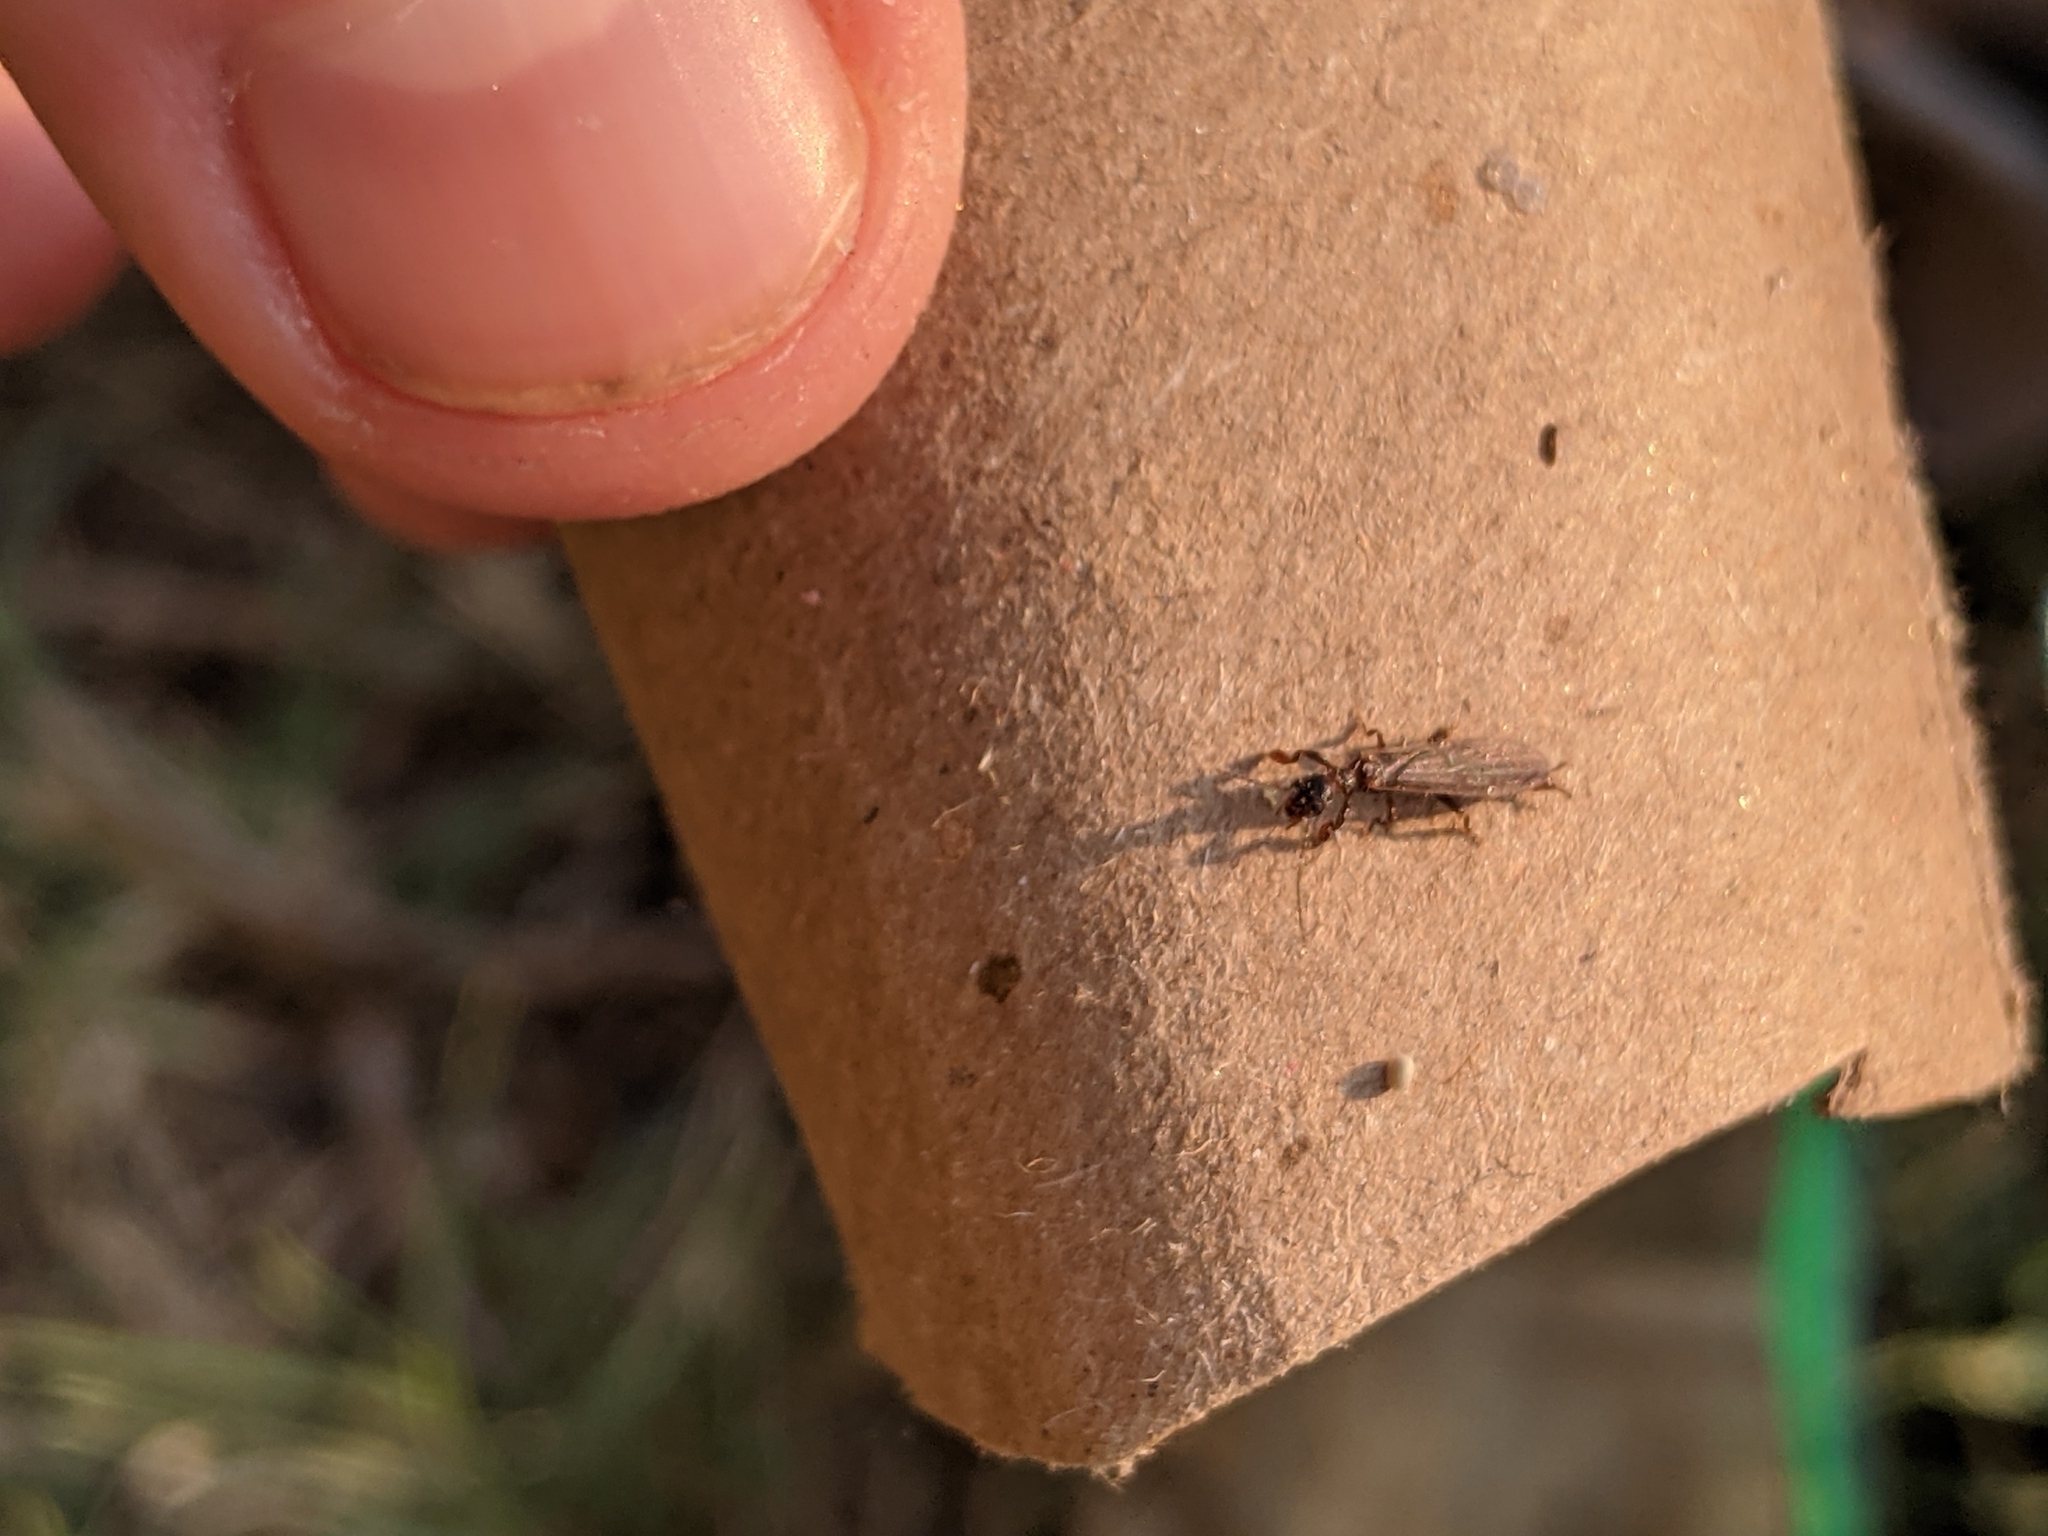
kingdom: Animalia
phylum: Arthropoda
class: Insecta
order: Embioptera
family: Oligotomidae
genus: Oligotoma
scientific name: Oligotoma nigra
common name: Black webspinner
